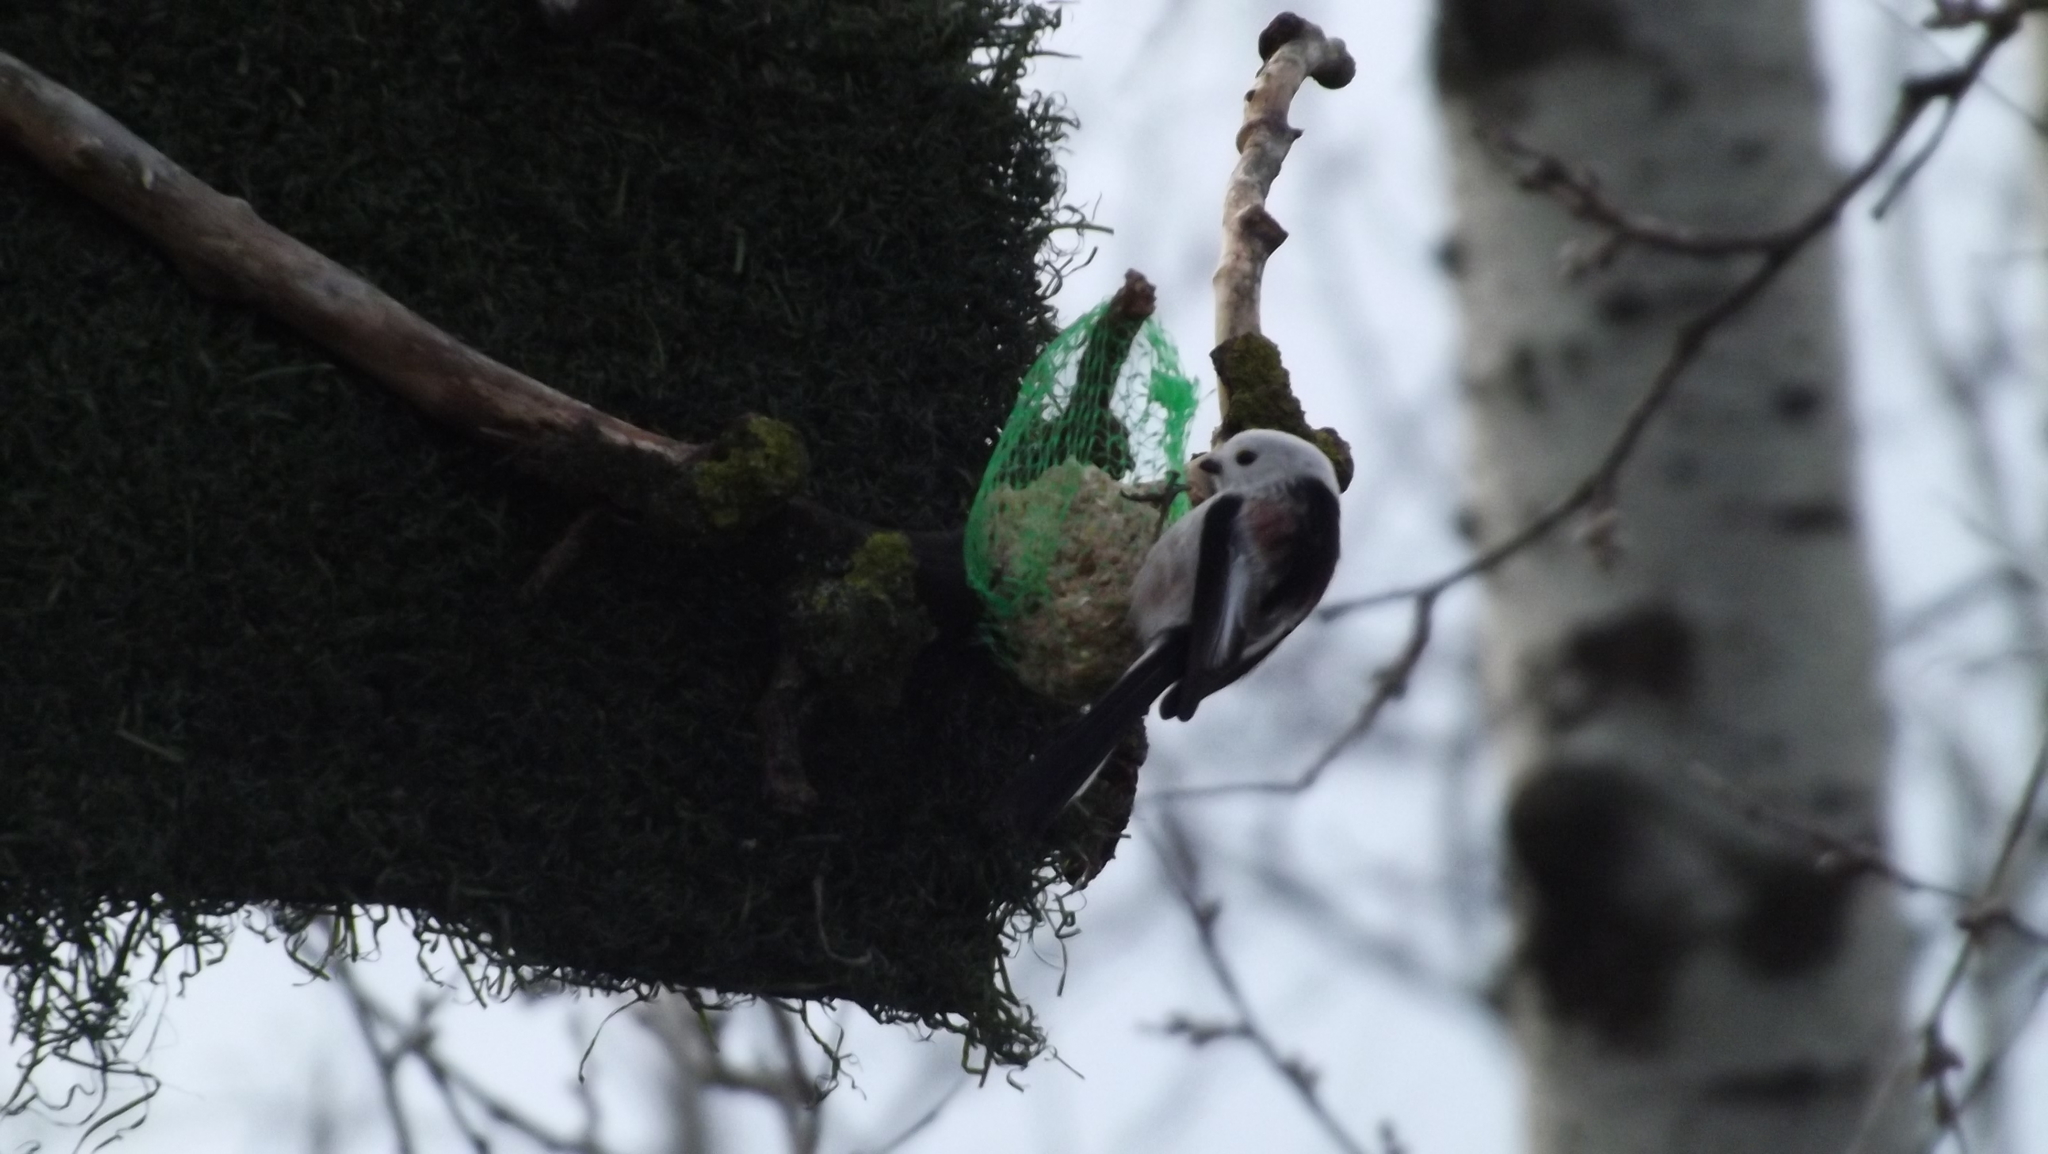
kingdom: Animalia
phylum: Chordata
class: Aves
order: Passeriformes
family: Aegithalidae
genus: Aegithalos
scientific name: Aegithalos caudatus
